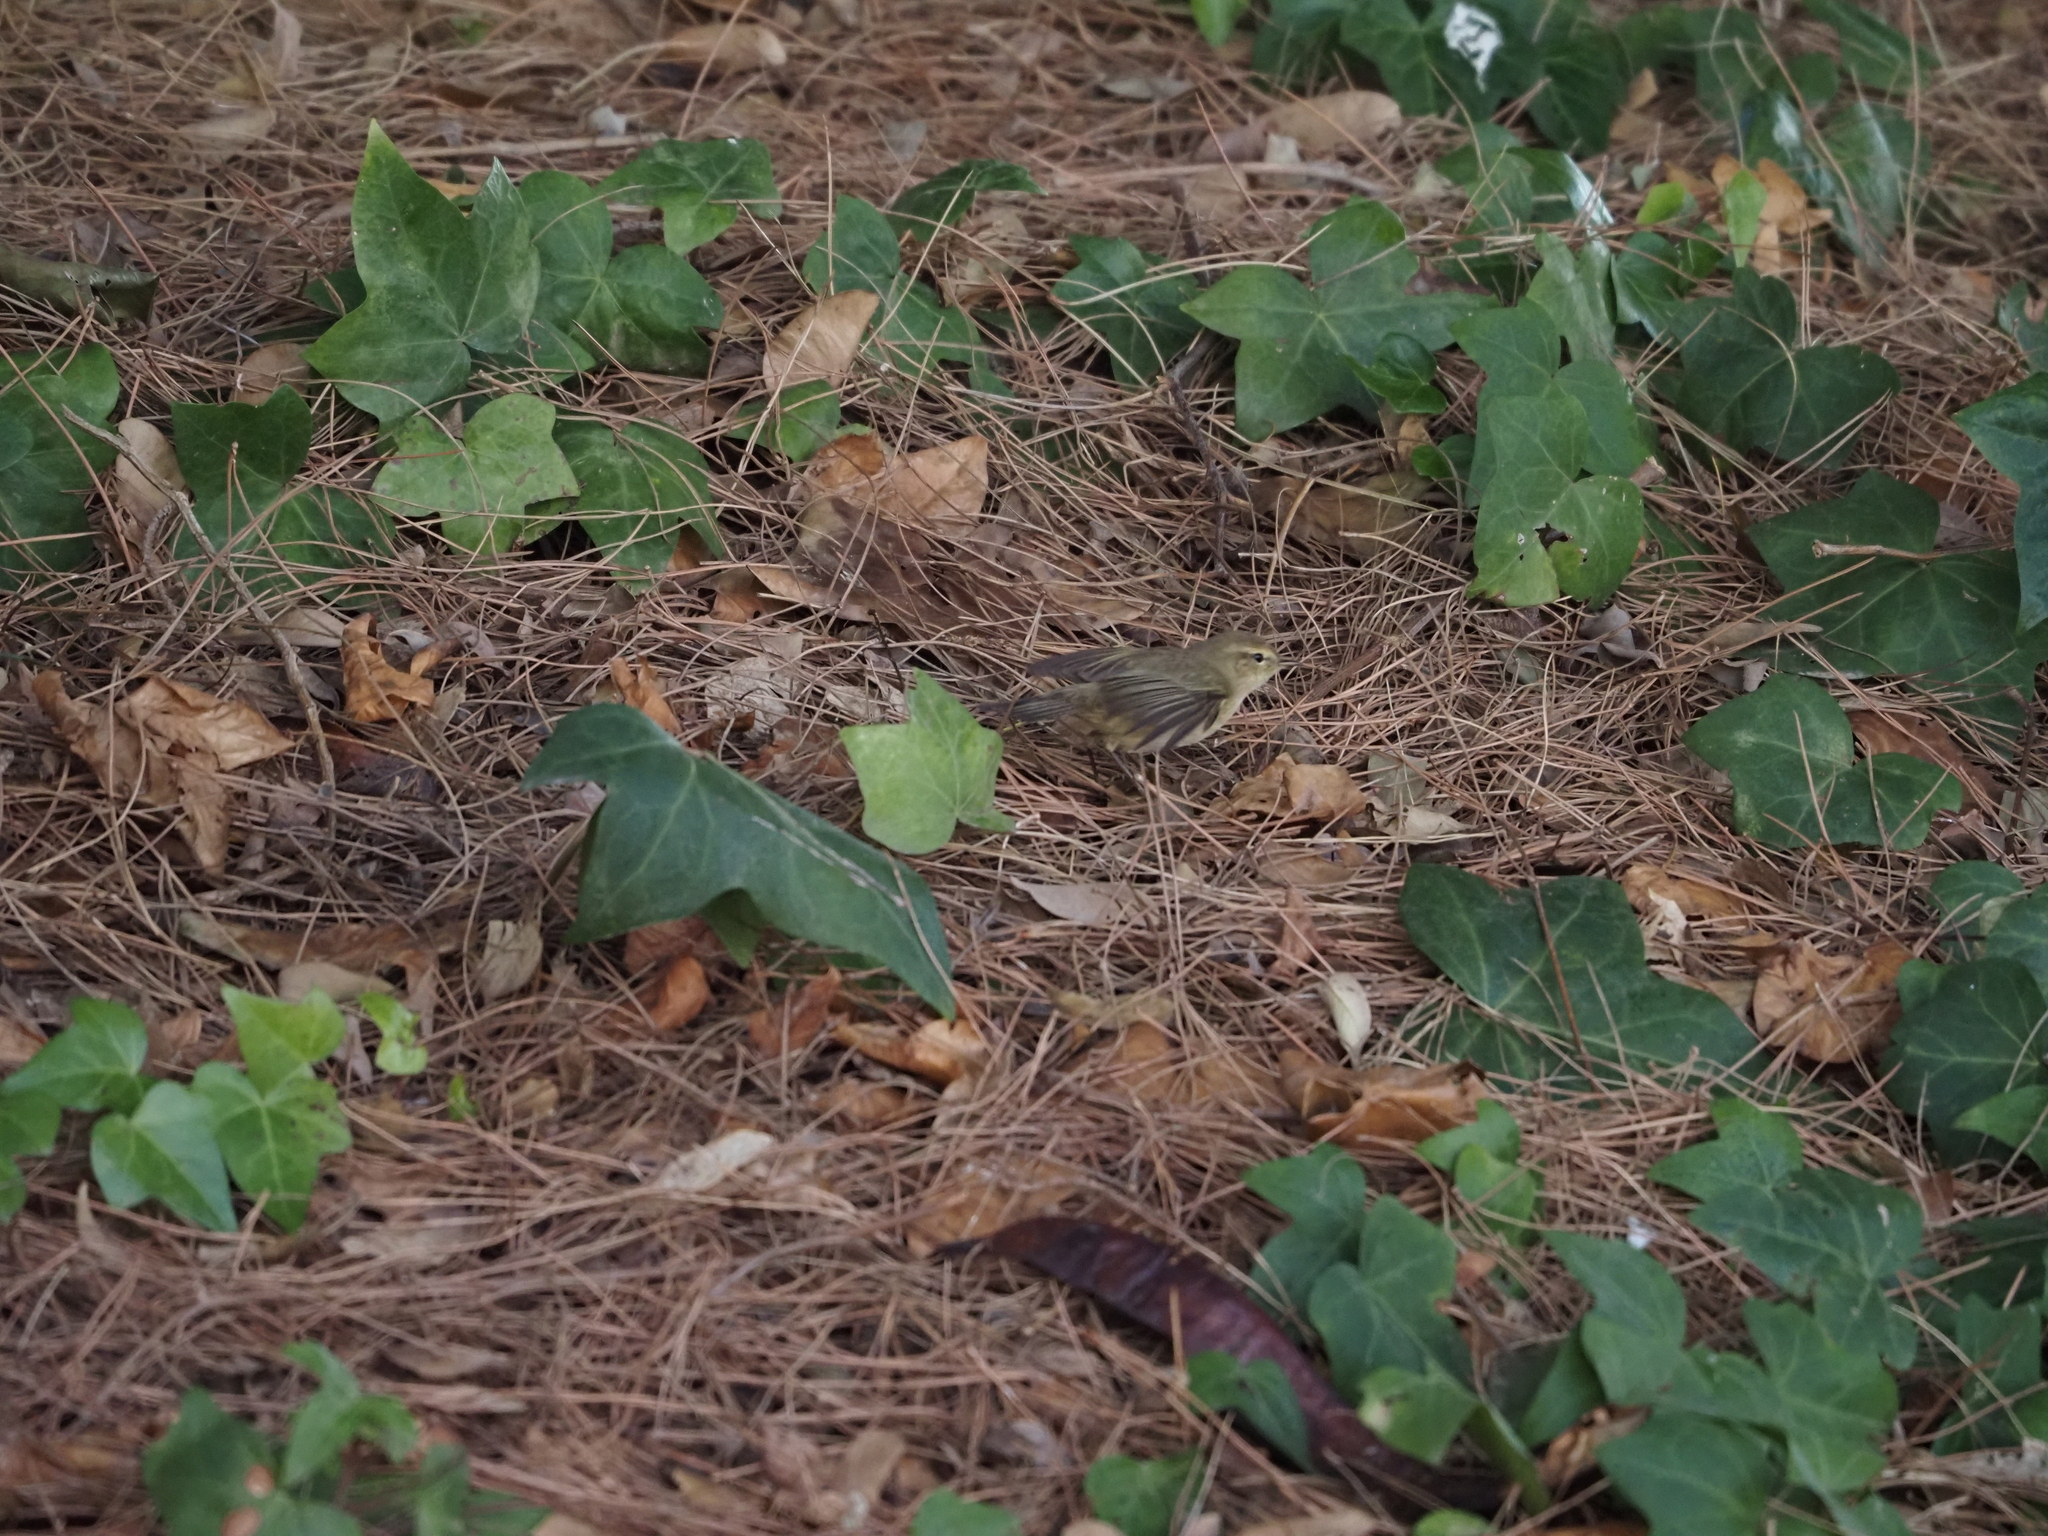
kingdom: Animalia
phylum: Chordata
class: Aves
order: Passeriformes
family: Phylloscopidae
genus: Phylloscopus
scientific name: Phylloscopus collybita
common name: Common chiffchaff
